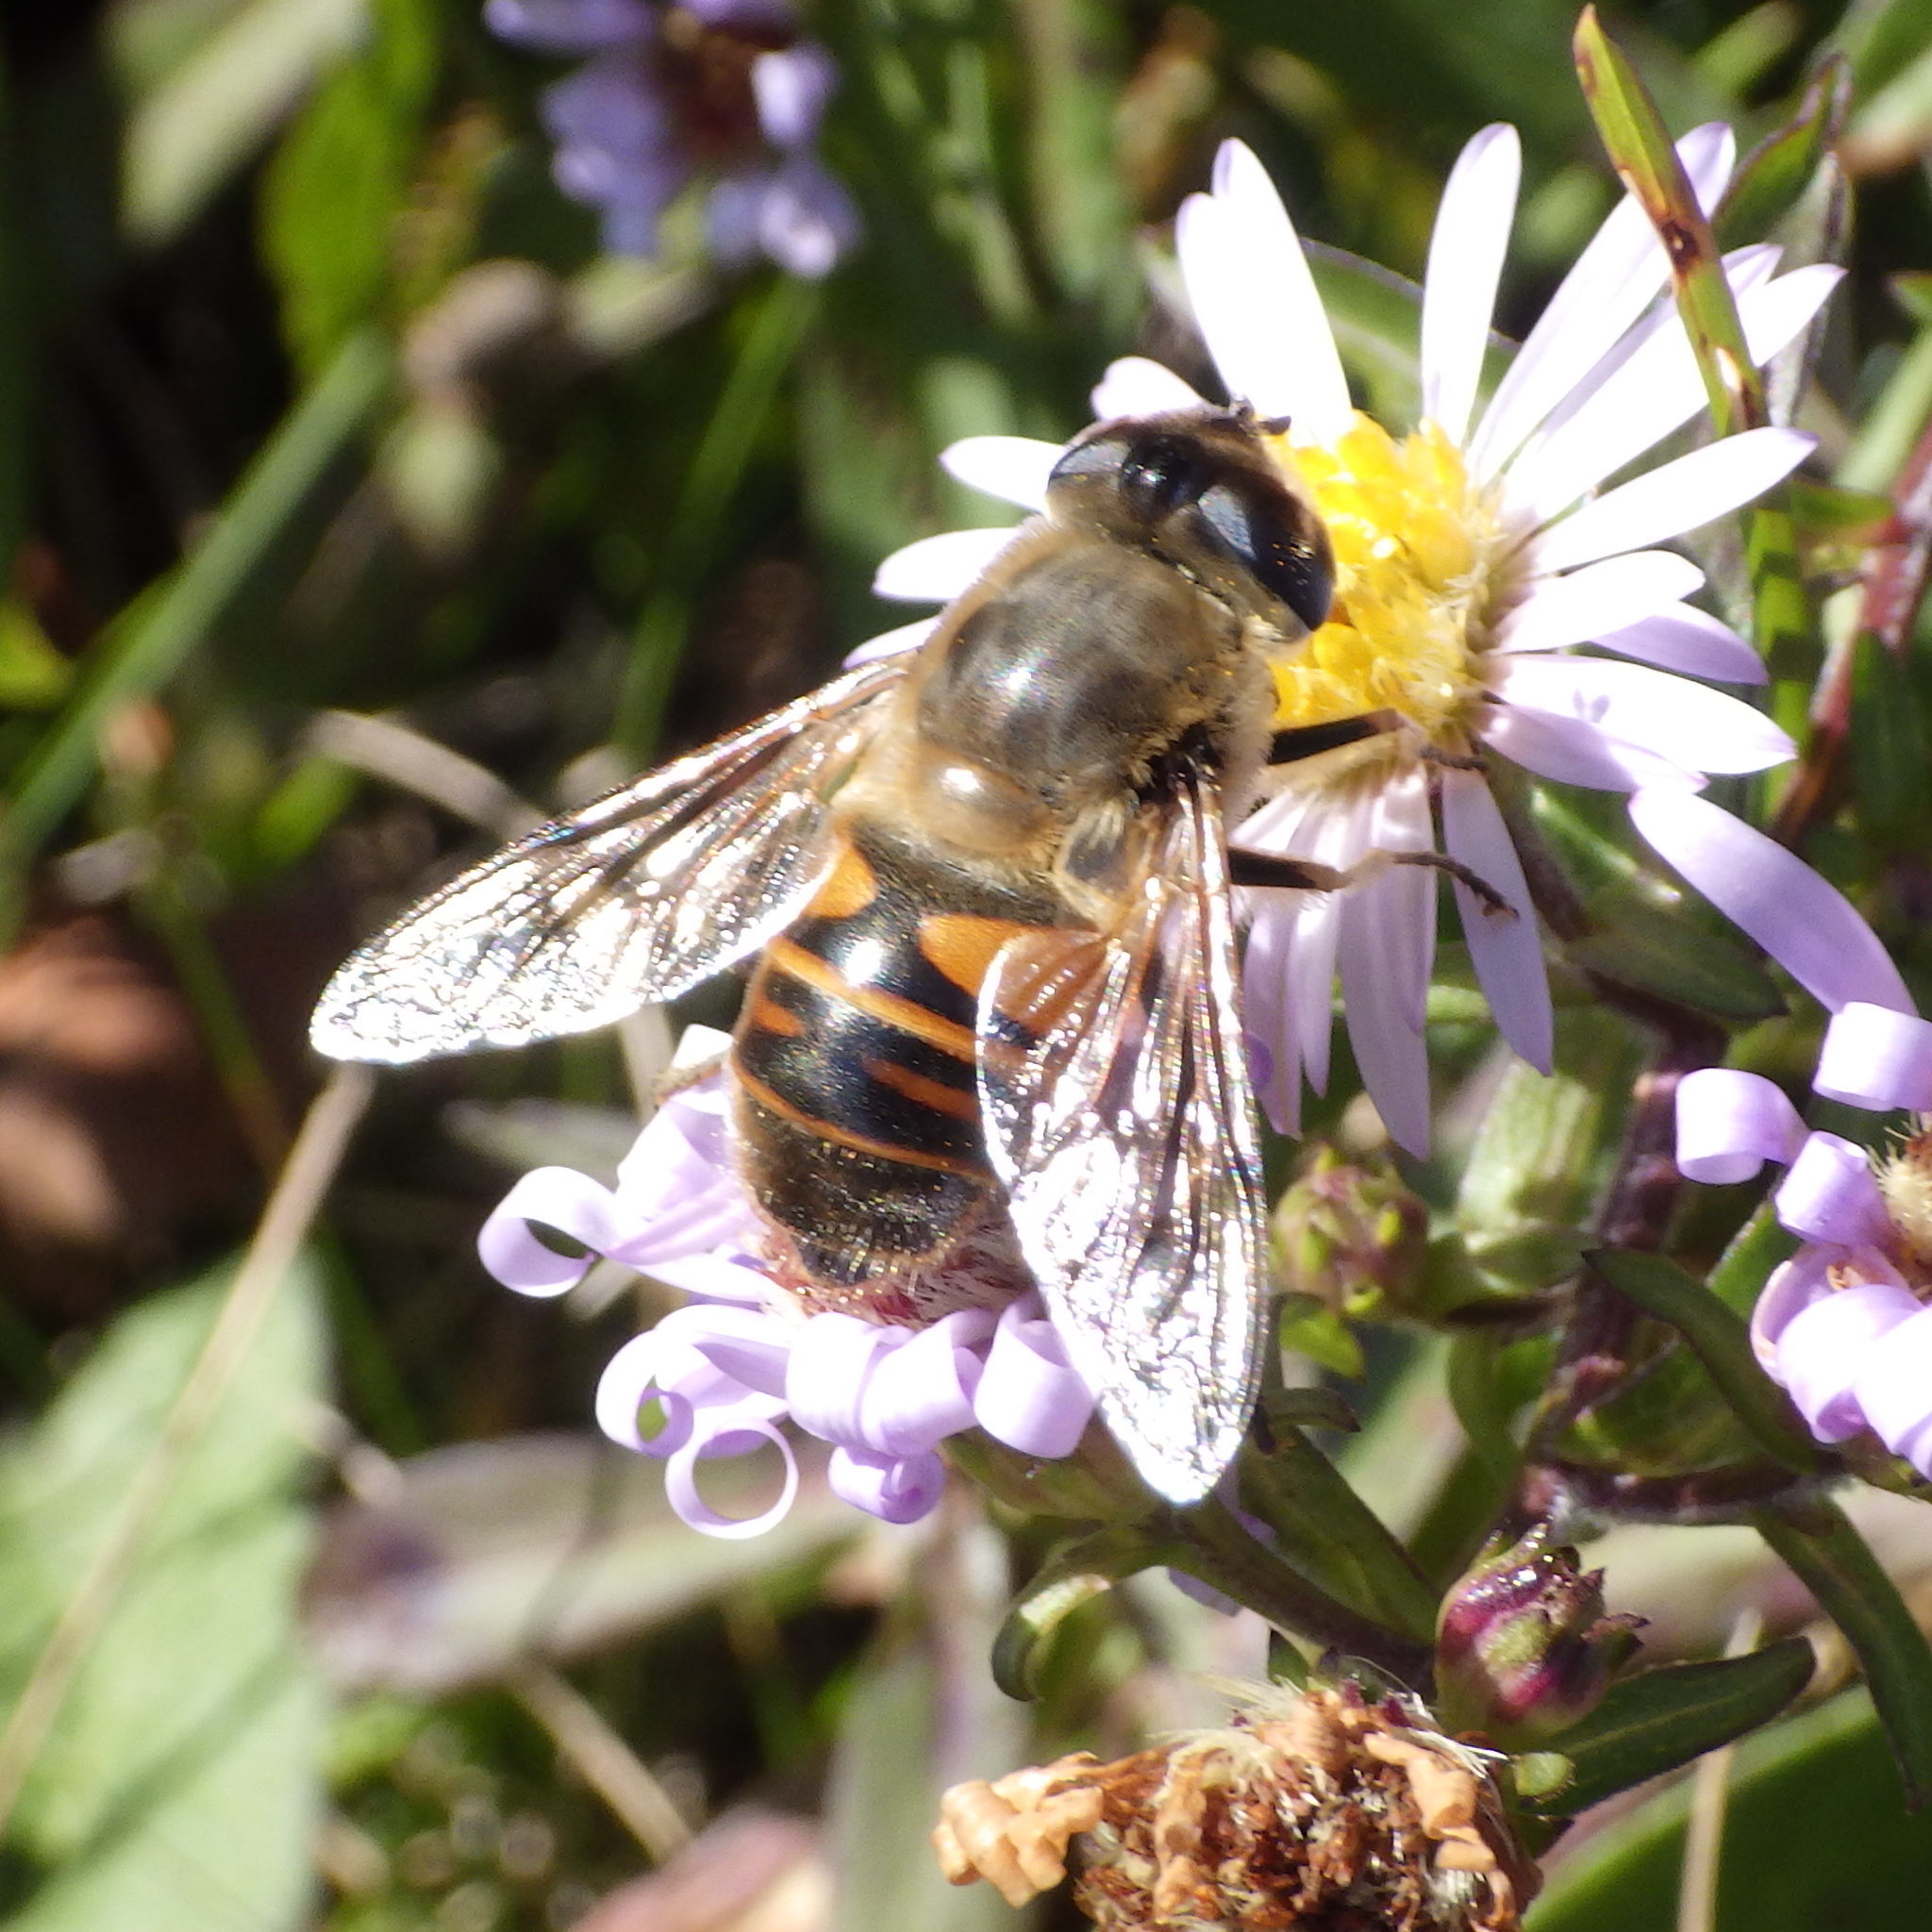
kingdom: Animalia
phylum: Arthropoda
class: Insecta
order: Diptera
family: Syrphidae
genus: Eristalis
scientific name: Eristalis tenax
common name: Drone fly
